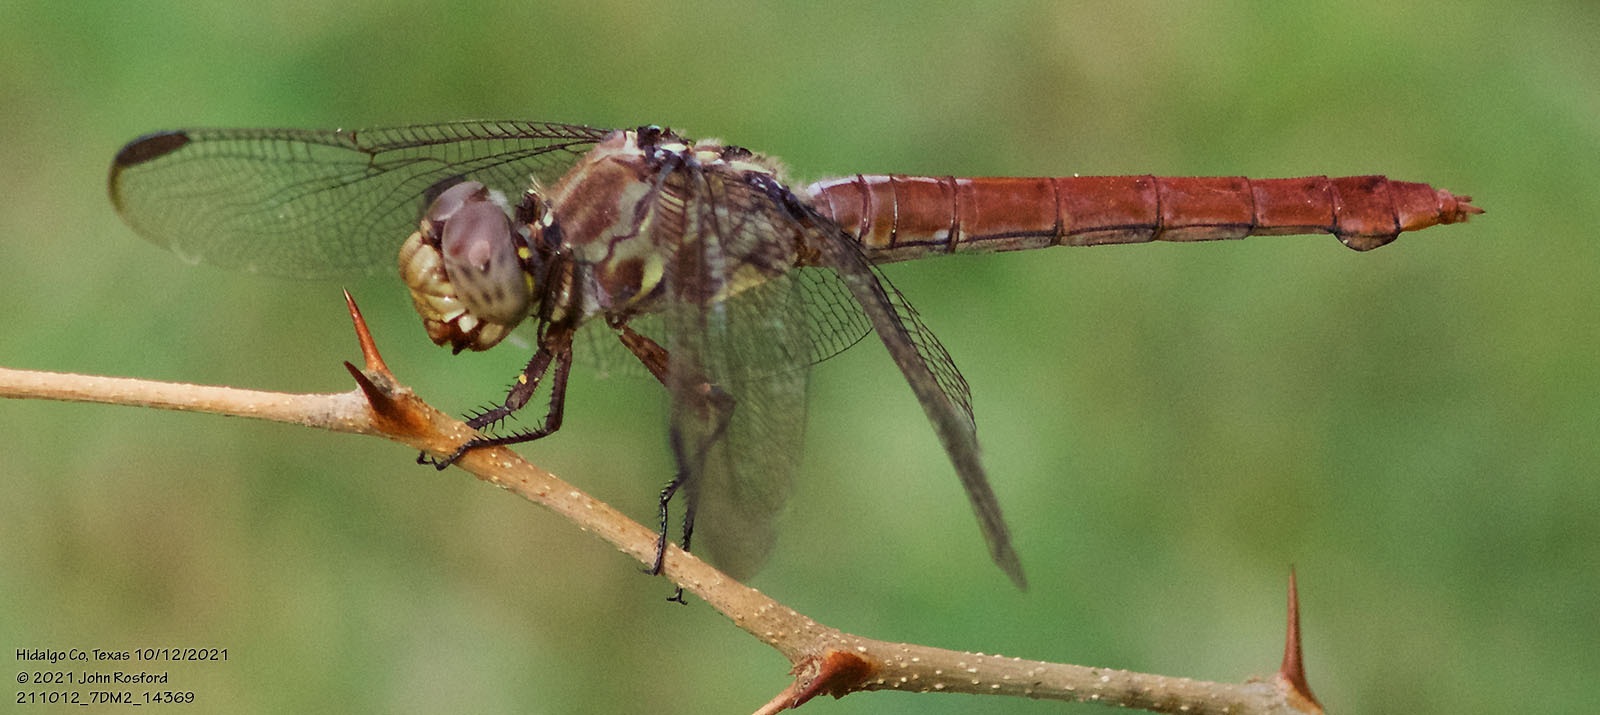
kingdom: Animalia
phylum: Arthropoda
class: Insecta
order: Odonata
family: Libellulidae
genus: Orthemis
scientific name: Orthemis ferruginea
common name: Roseate skimmer
